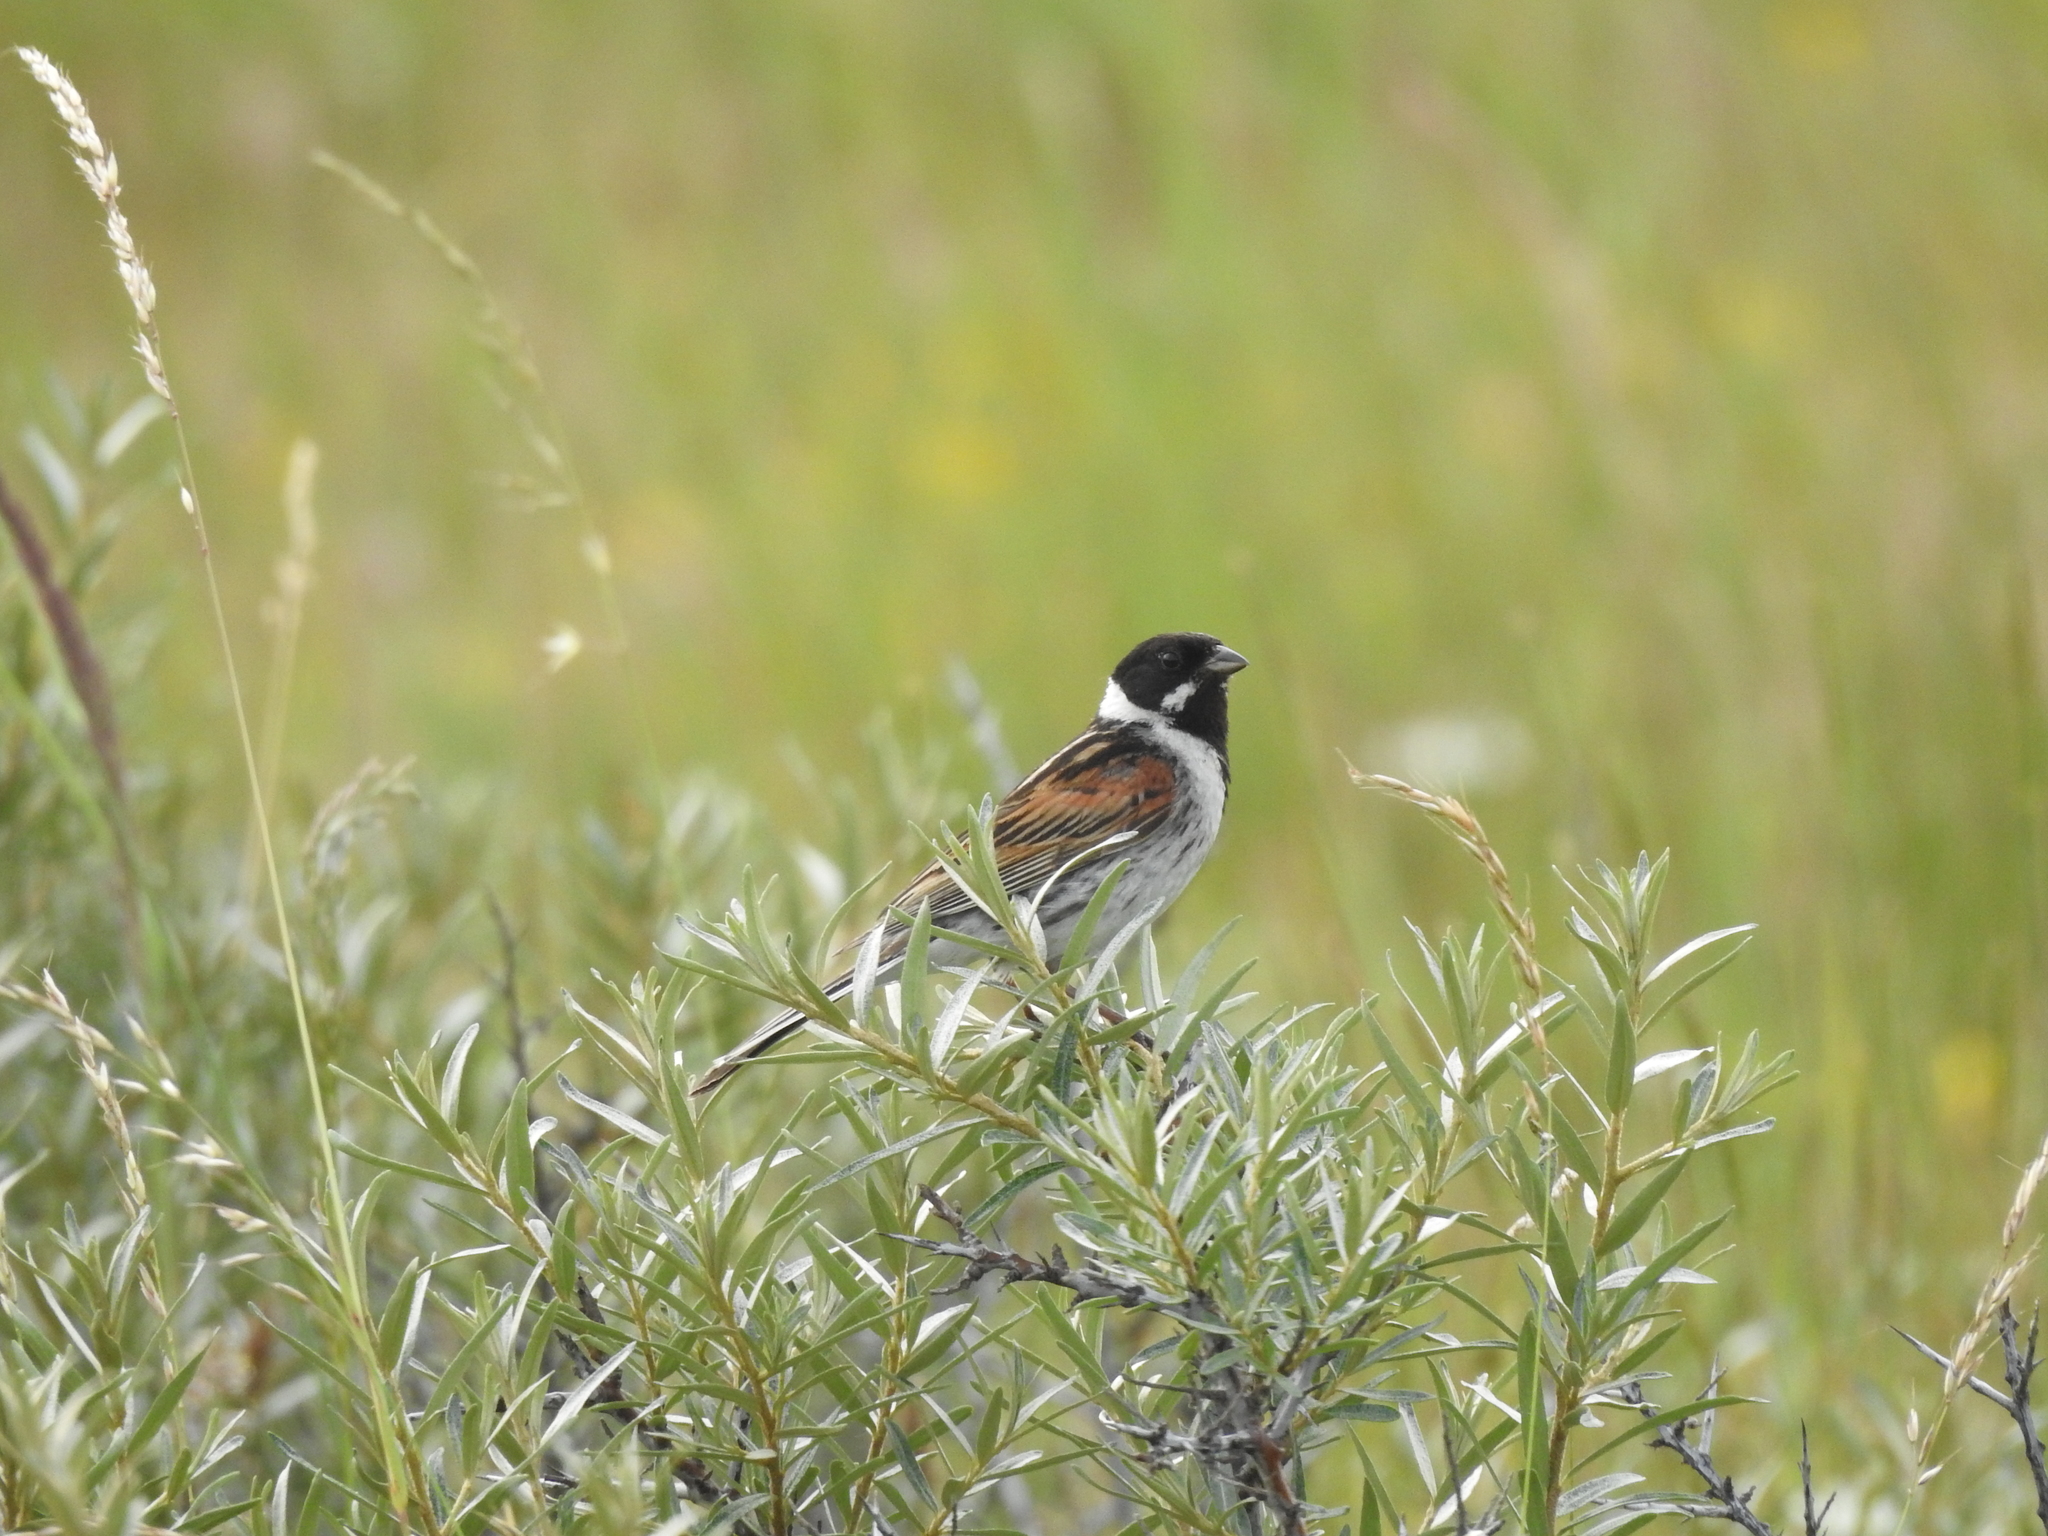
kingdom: Animalia
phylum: Chordata
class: Aves
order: Passeriformes
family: Emberizidae
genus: Emberiza
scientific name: Emberiza schoeniclus
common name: Reed bunting
